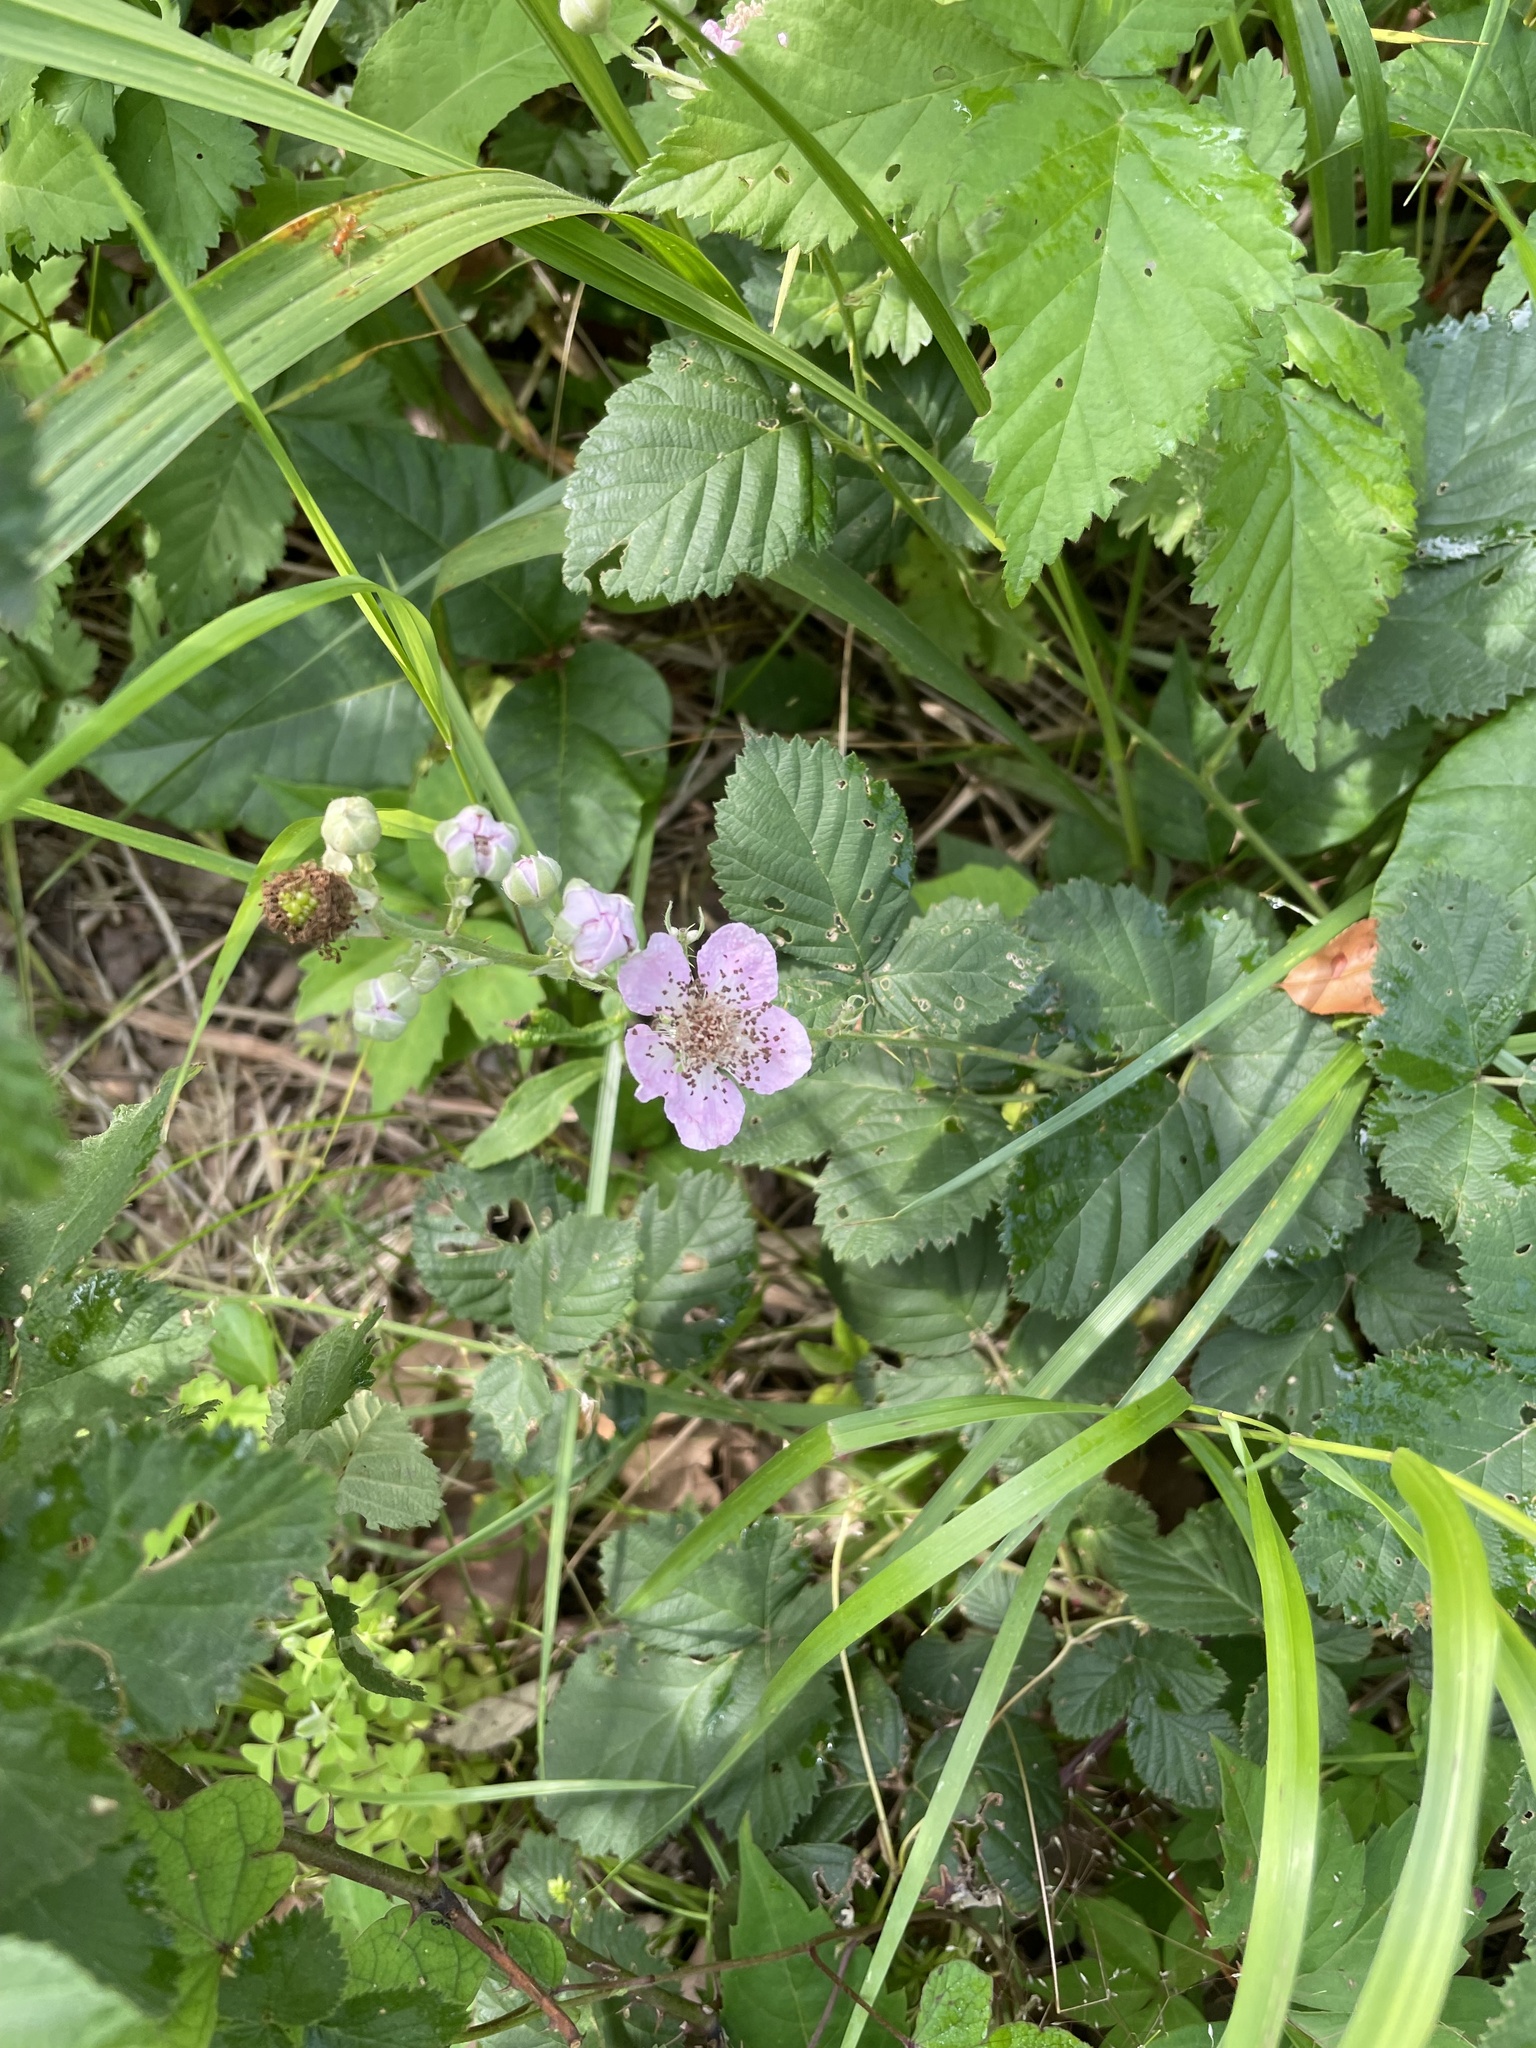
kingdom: Plantae
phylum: Tracheophyta
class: Magnoliopsida
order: Rosales
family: Rosaceae
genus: Rubus
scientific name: Rubus bifrons
